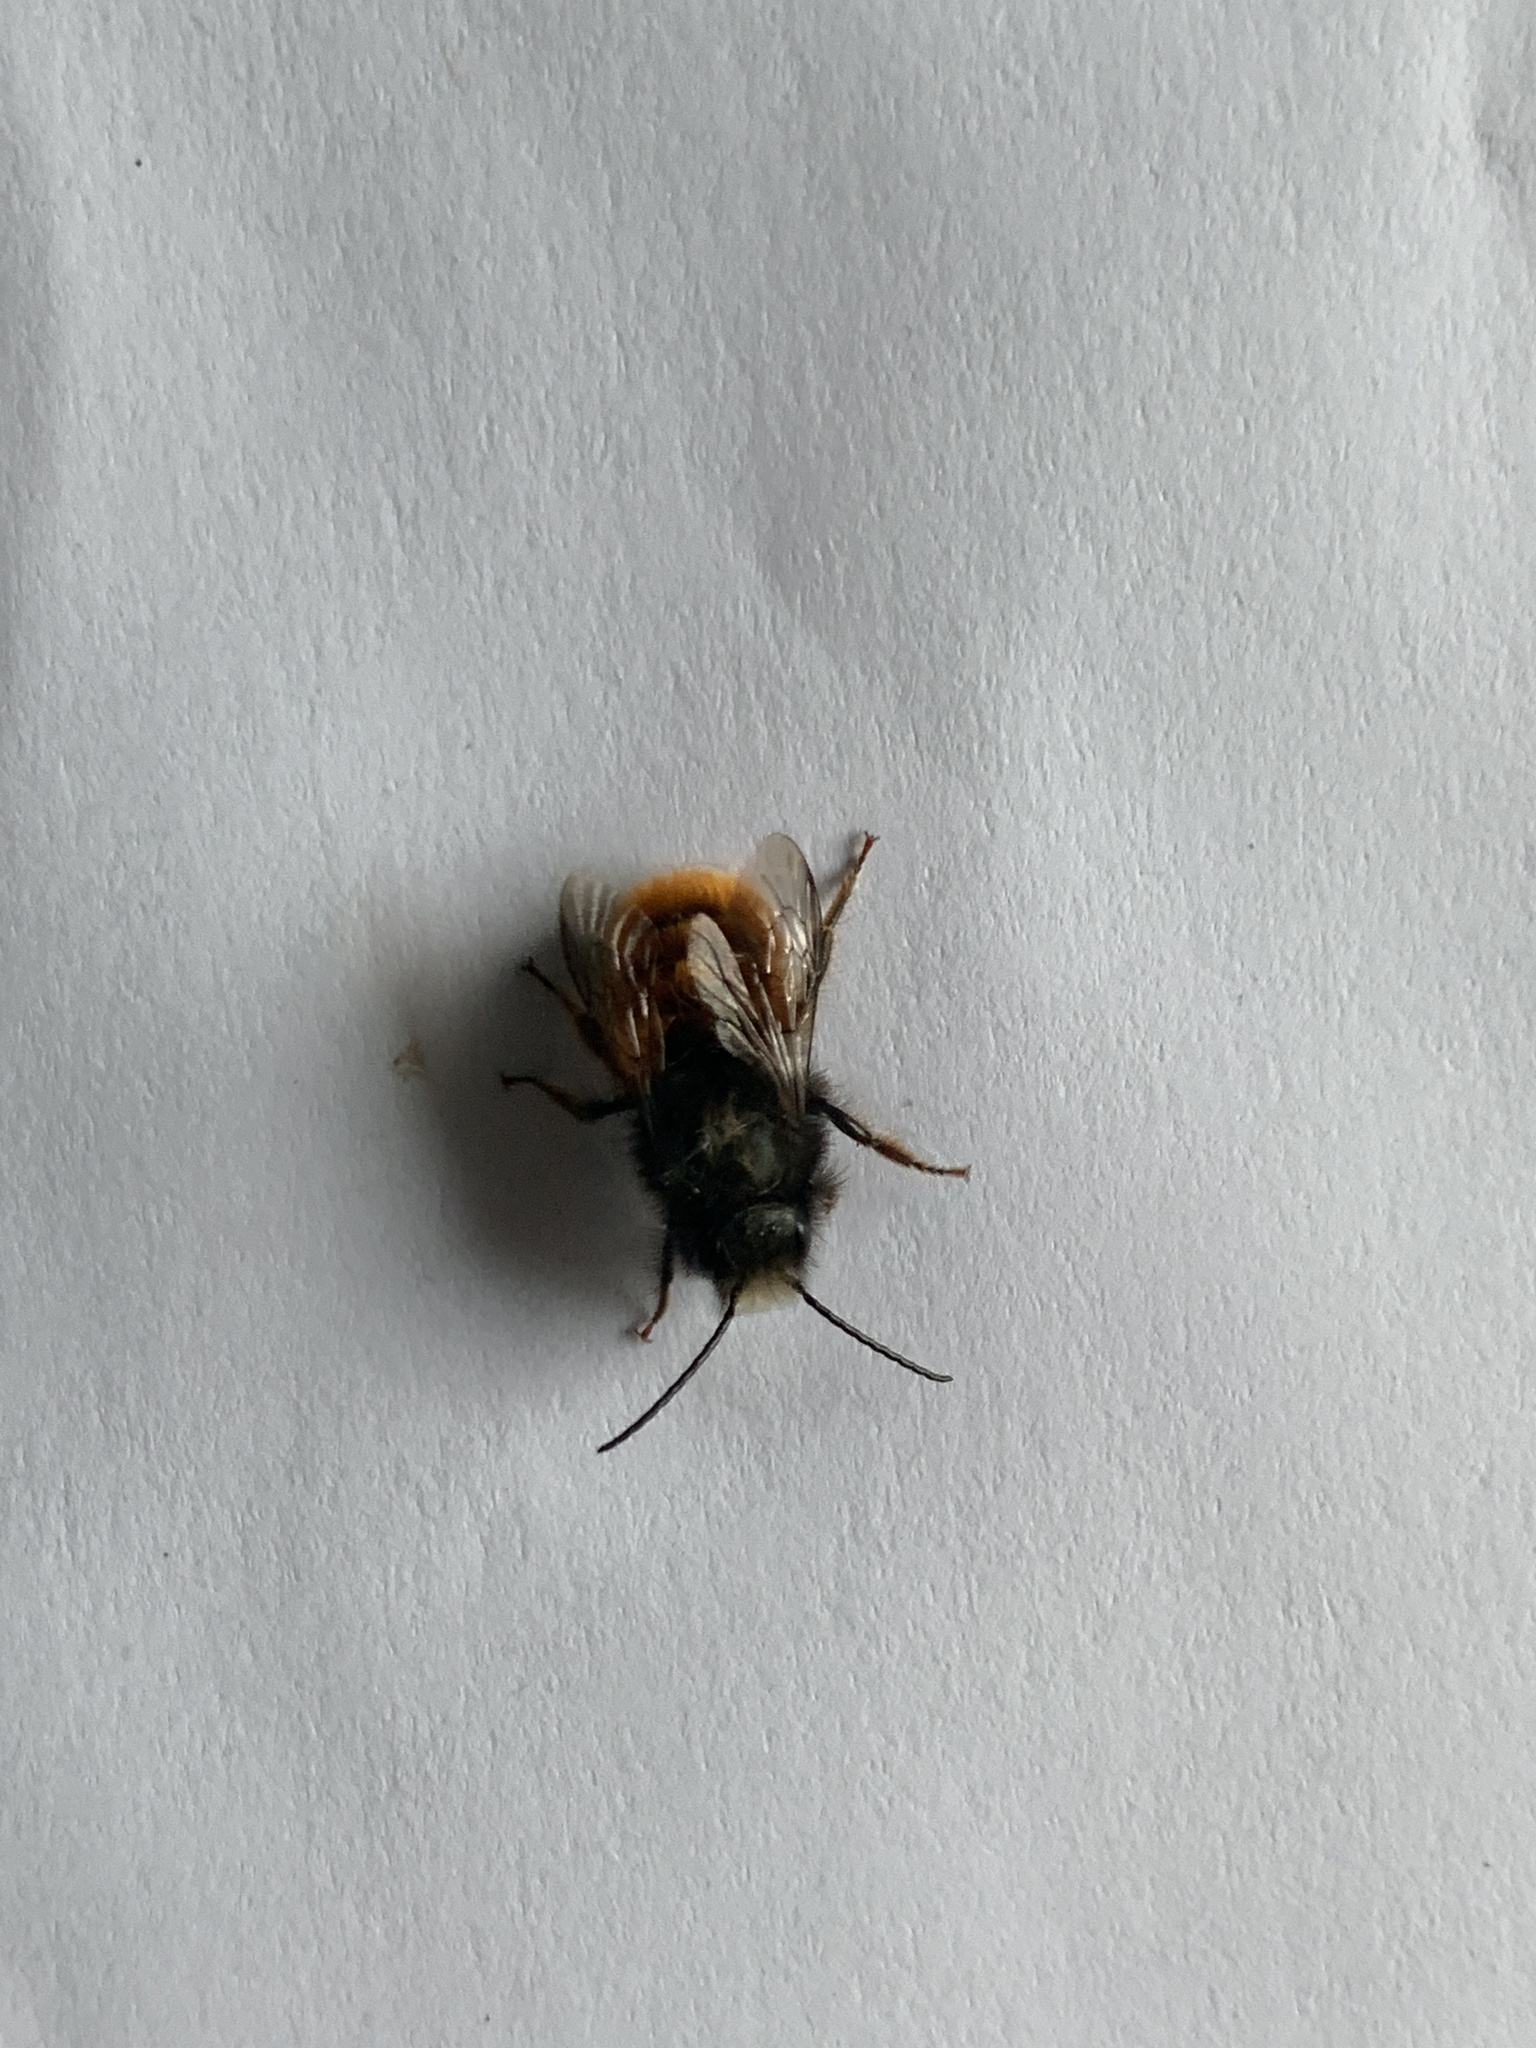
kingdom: Animalia
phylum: Arthropoda
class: Insecta
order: Hymenoptera
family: Megachilidae
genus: Osmia
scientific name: Osmia cornuta
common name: Mason bee
